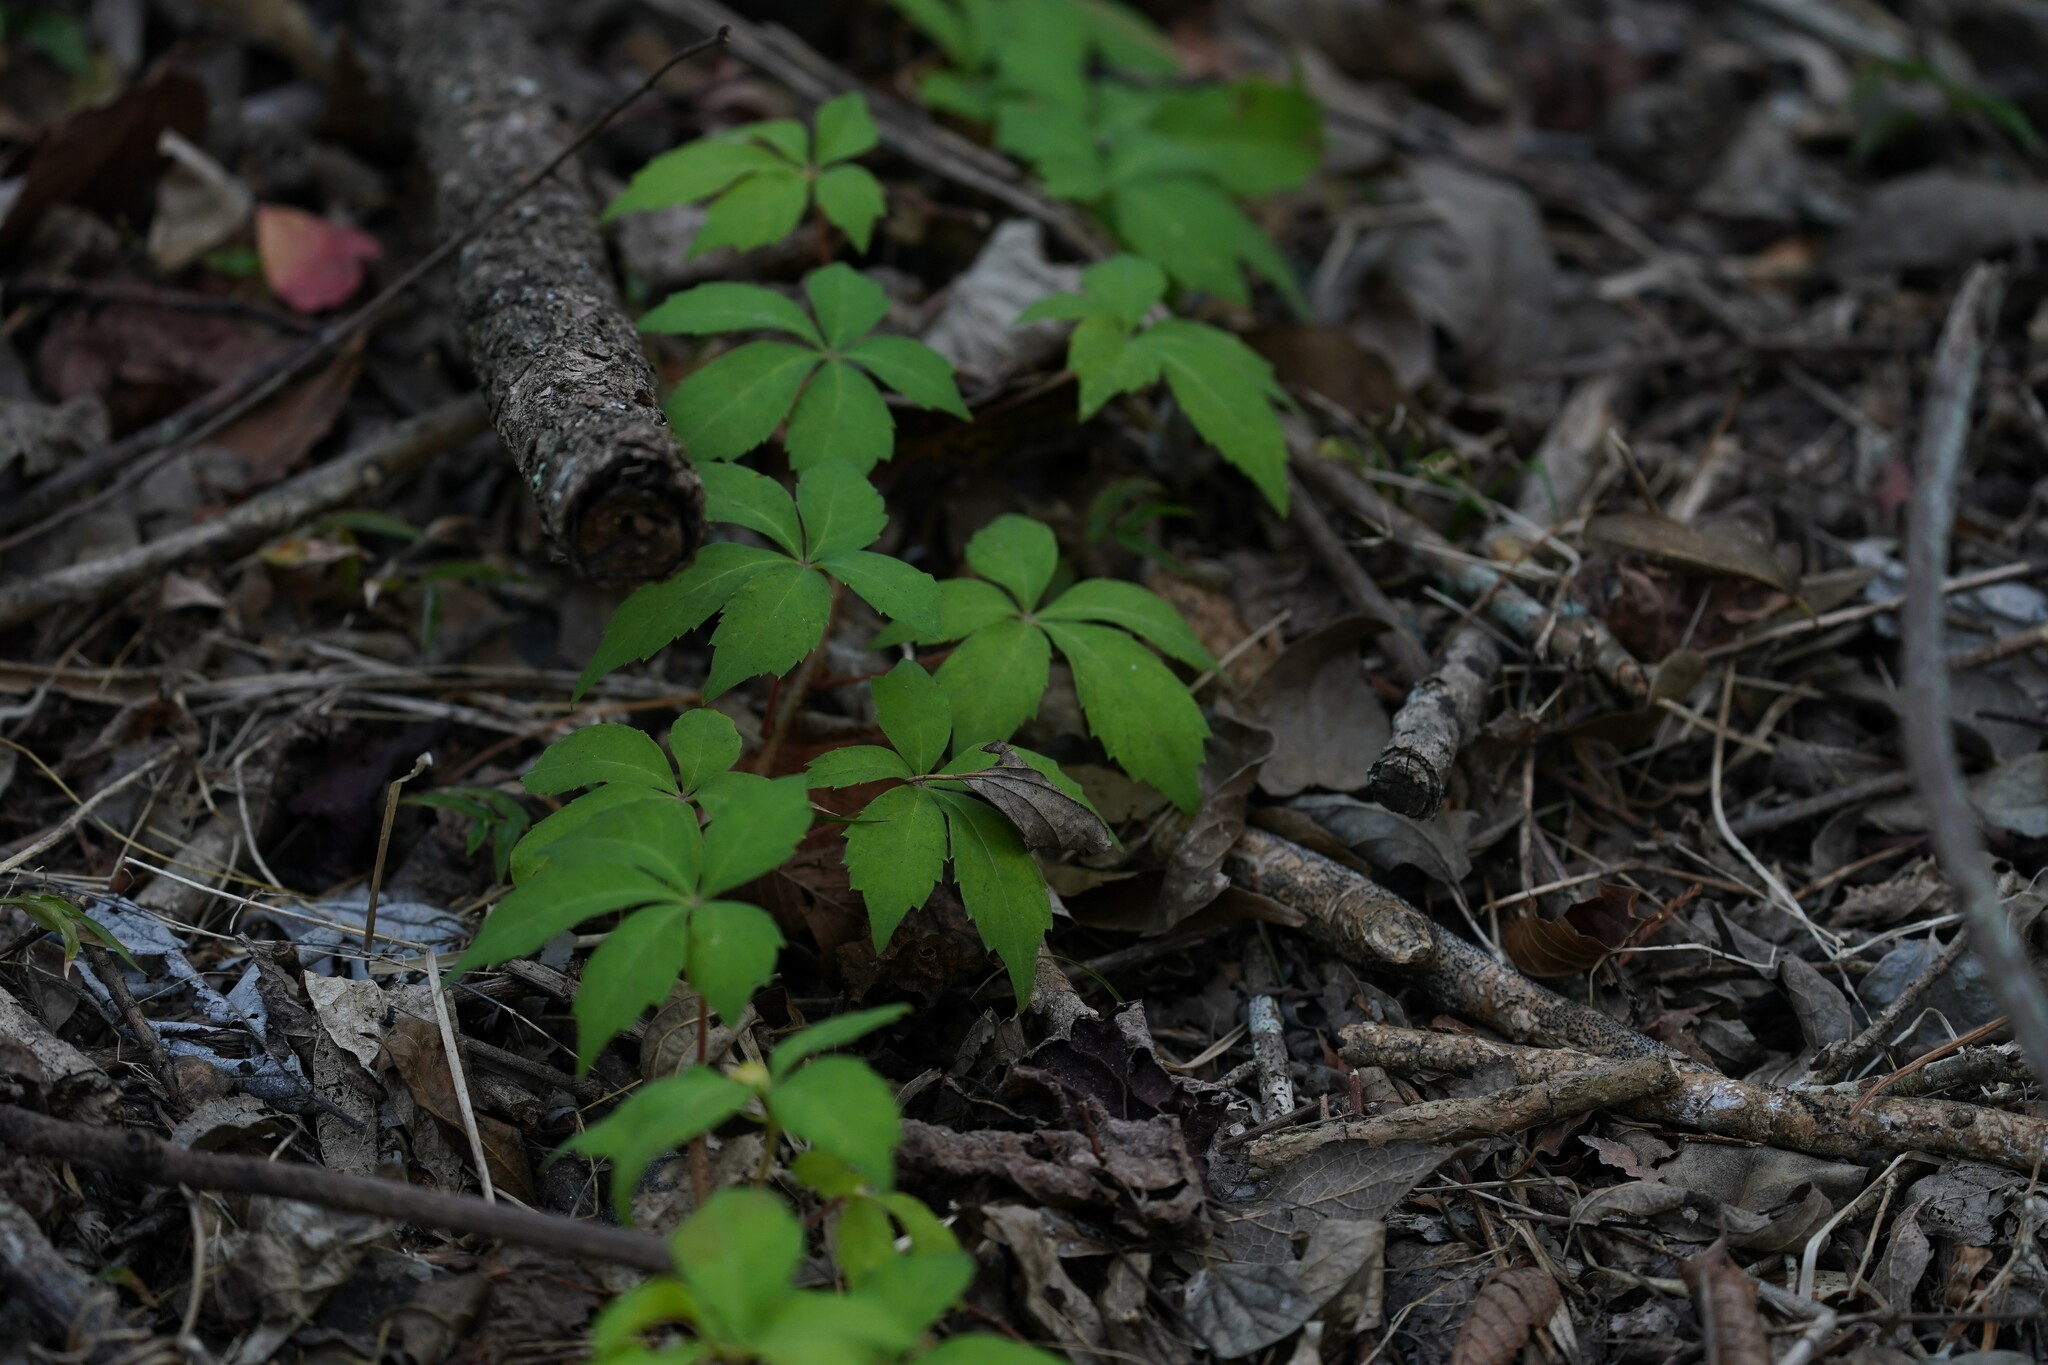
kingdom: Plantae
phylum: Tracheophyta
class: Magnoliopsida
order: Vitales
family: Vitaceae
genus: Parthenocissus
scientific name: Parthenocissus quinquefolia
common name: Virginia-creeper
